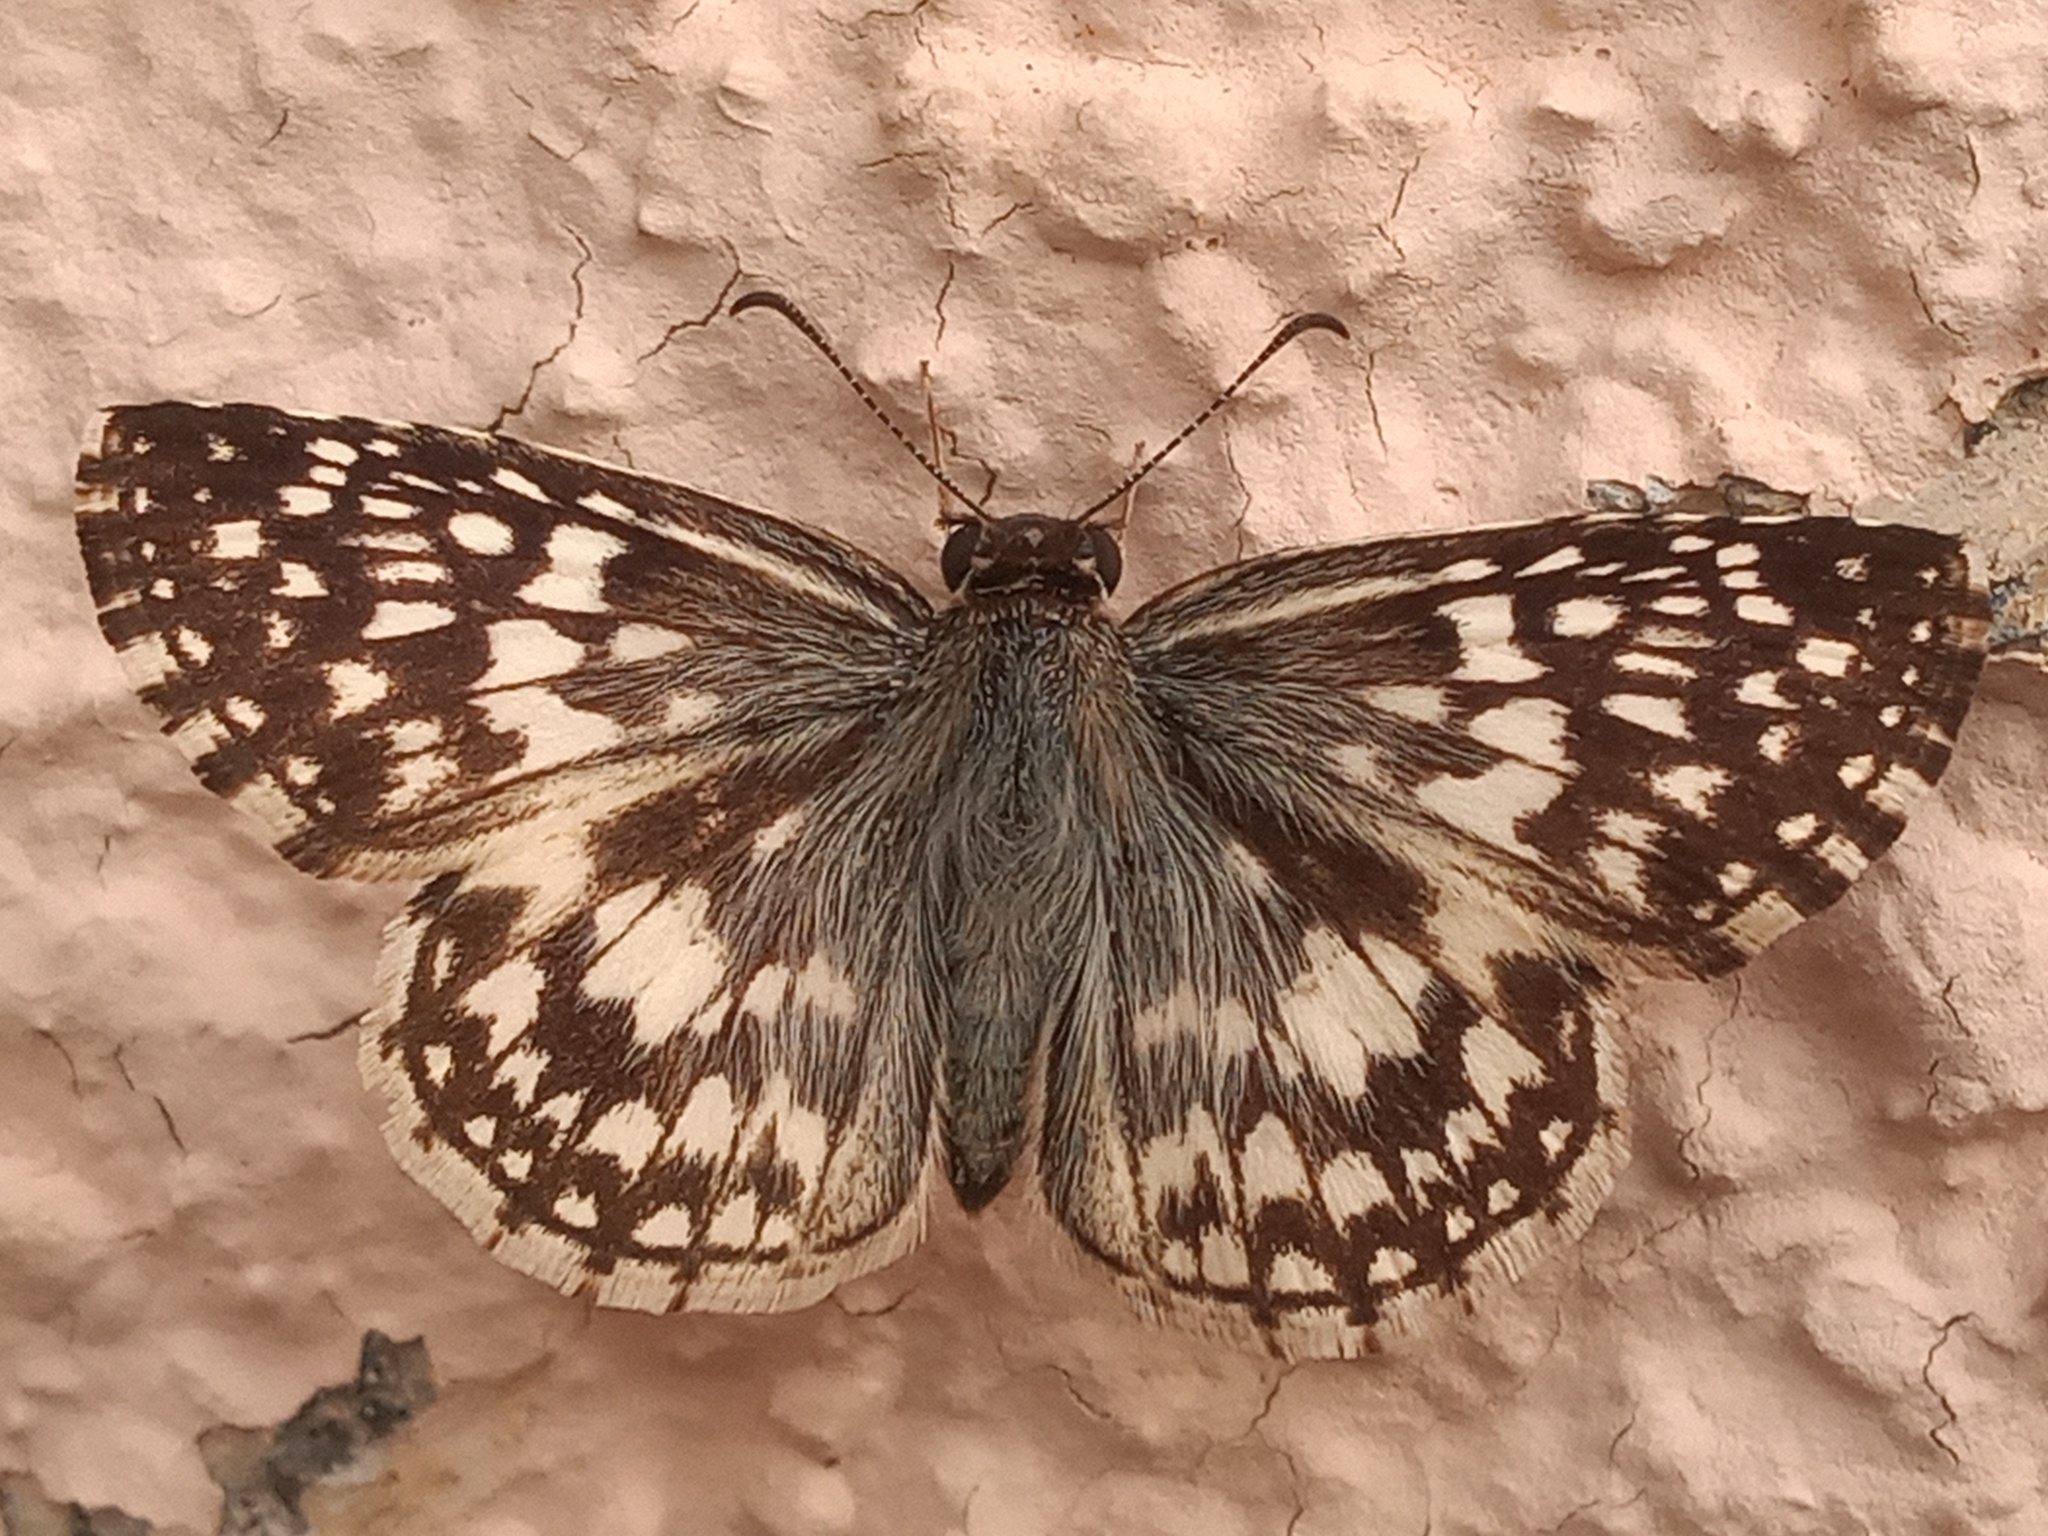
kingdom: Animalia
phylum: Arthropoda
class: Insecta
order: Lepidoptera
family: Hesperiidae
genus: Pyrgus
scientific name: Pyrgus oileus
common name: Tropical checkered-skipper
